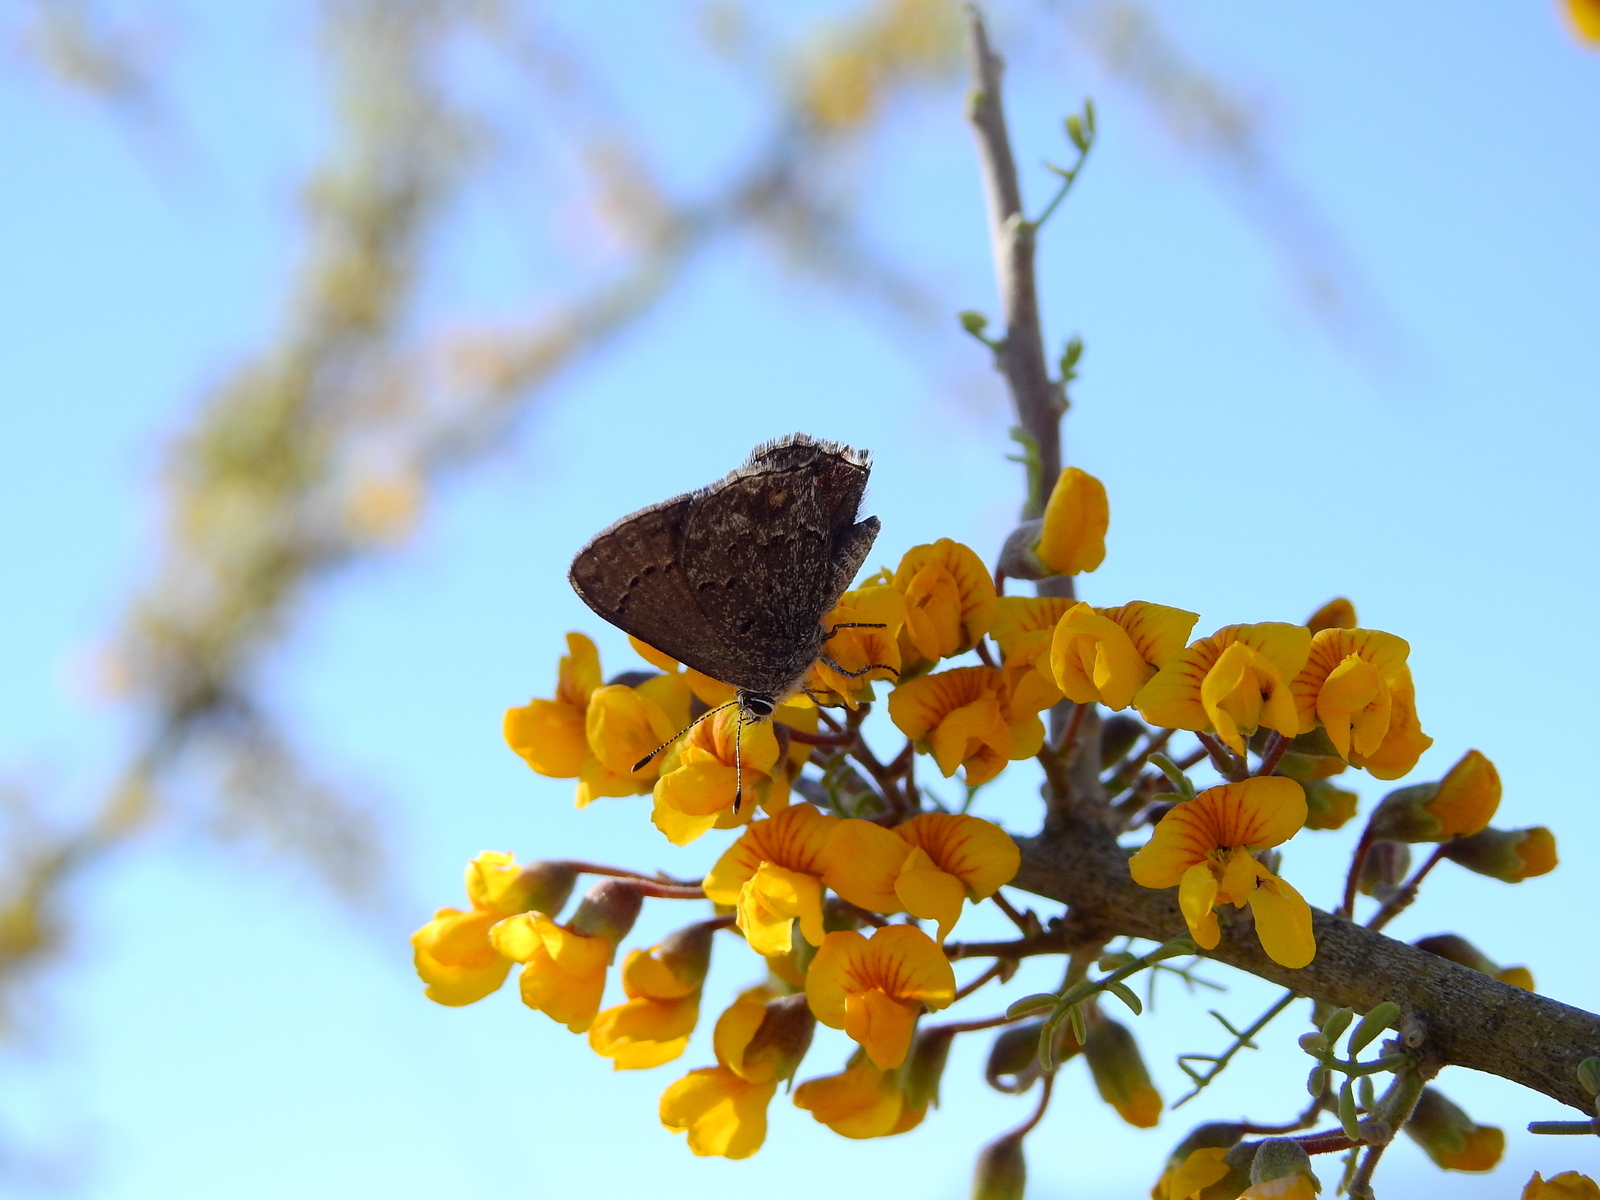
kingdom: Animalia
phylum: Arthropoda
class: Insecta
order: Lepidoptera
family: Lycaenidae
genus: Strymon
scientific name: Strymon
